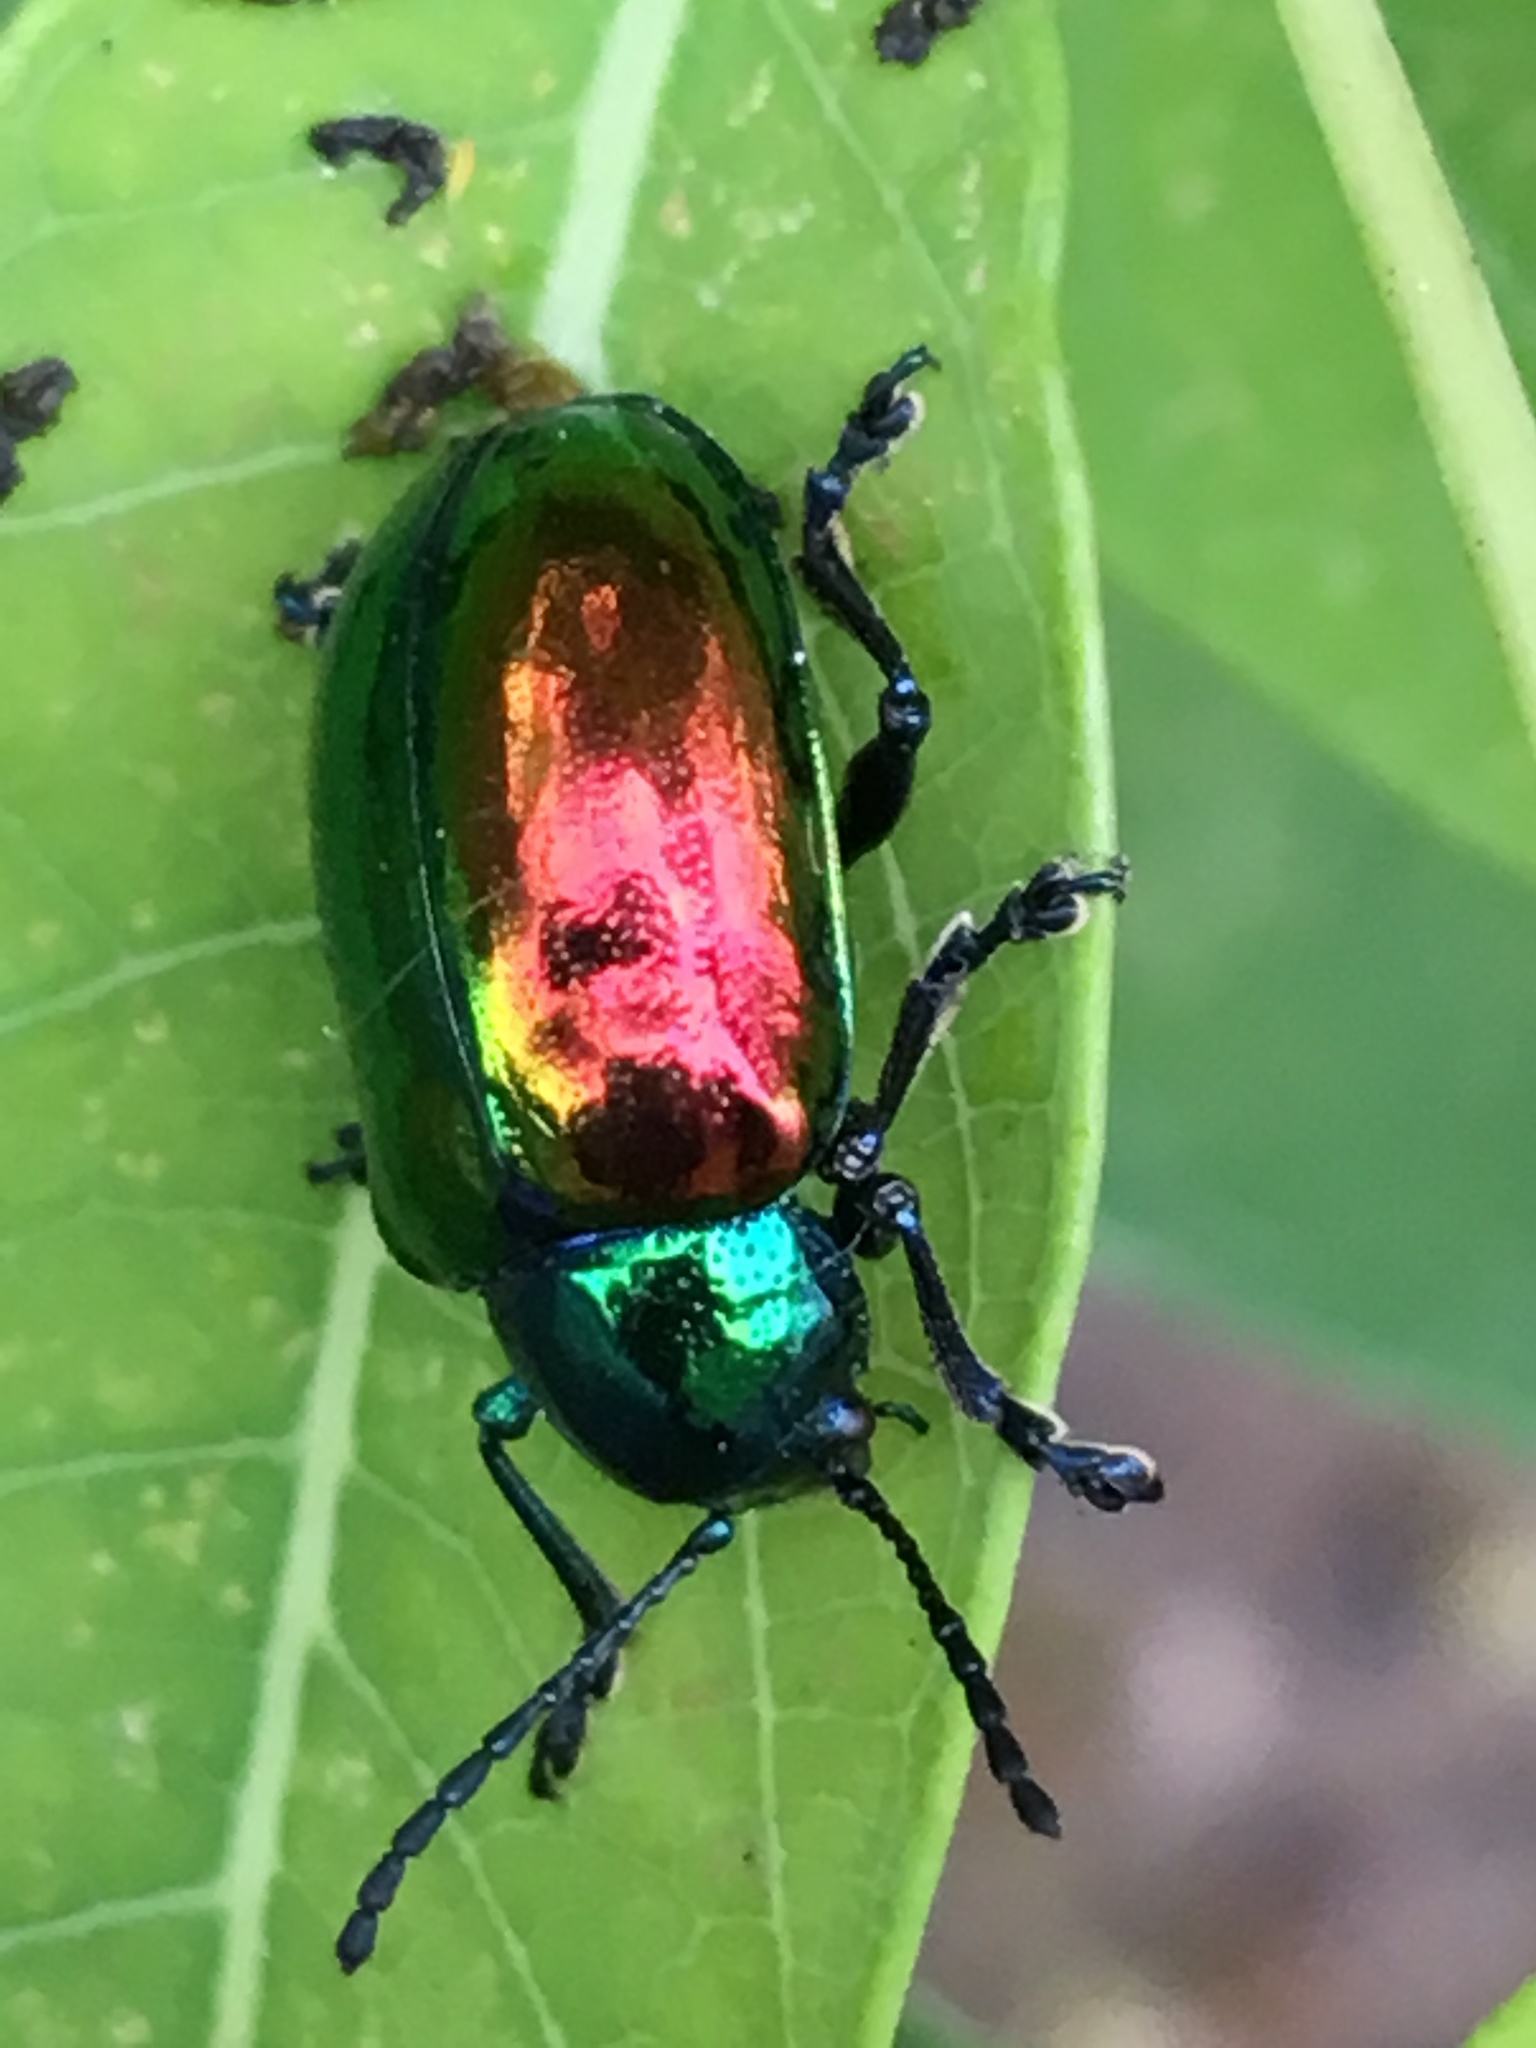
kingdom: Animalia
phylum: Arthropoda
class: Insecta
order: Coleoptera
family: Chrysomelidae
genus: Chrysochus
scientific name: Chrysochus auratus
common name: Dogbane leaf beetle
